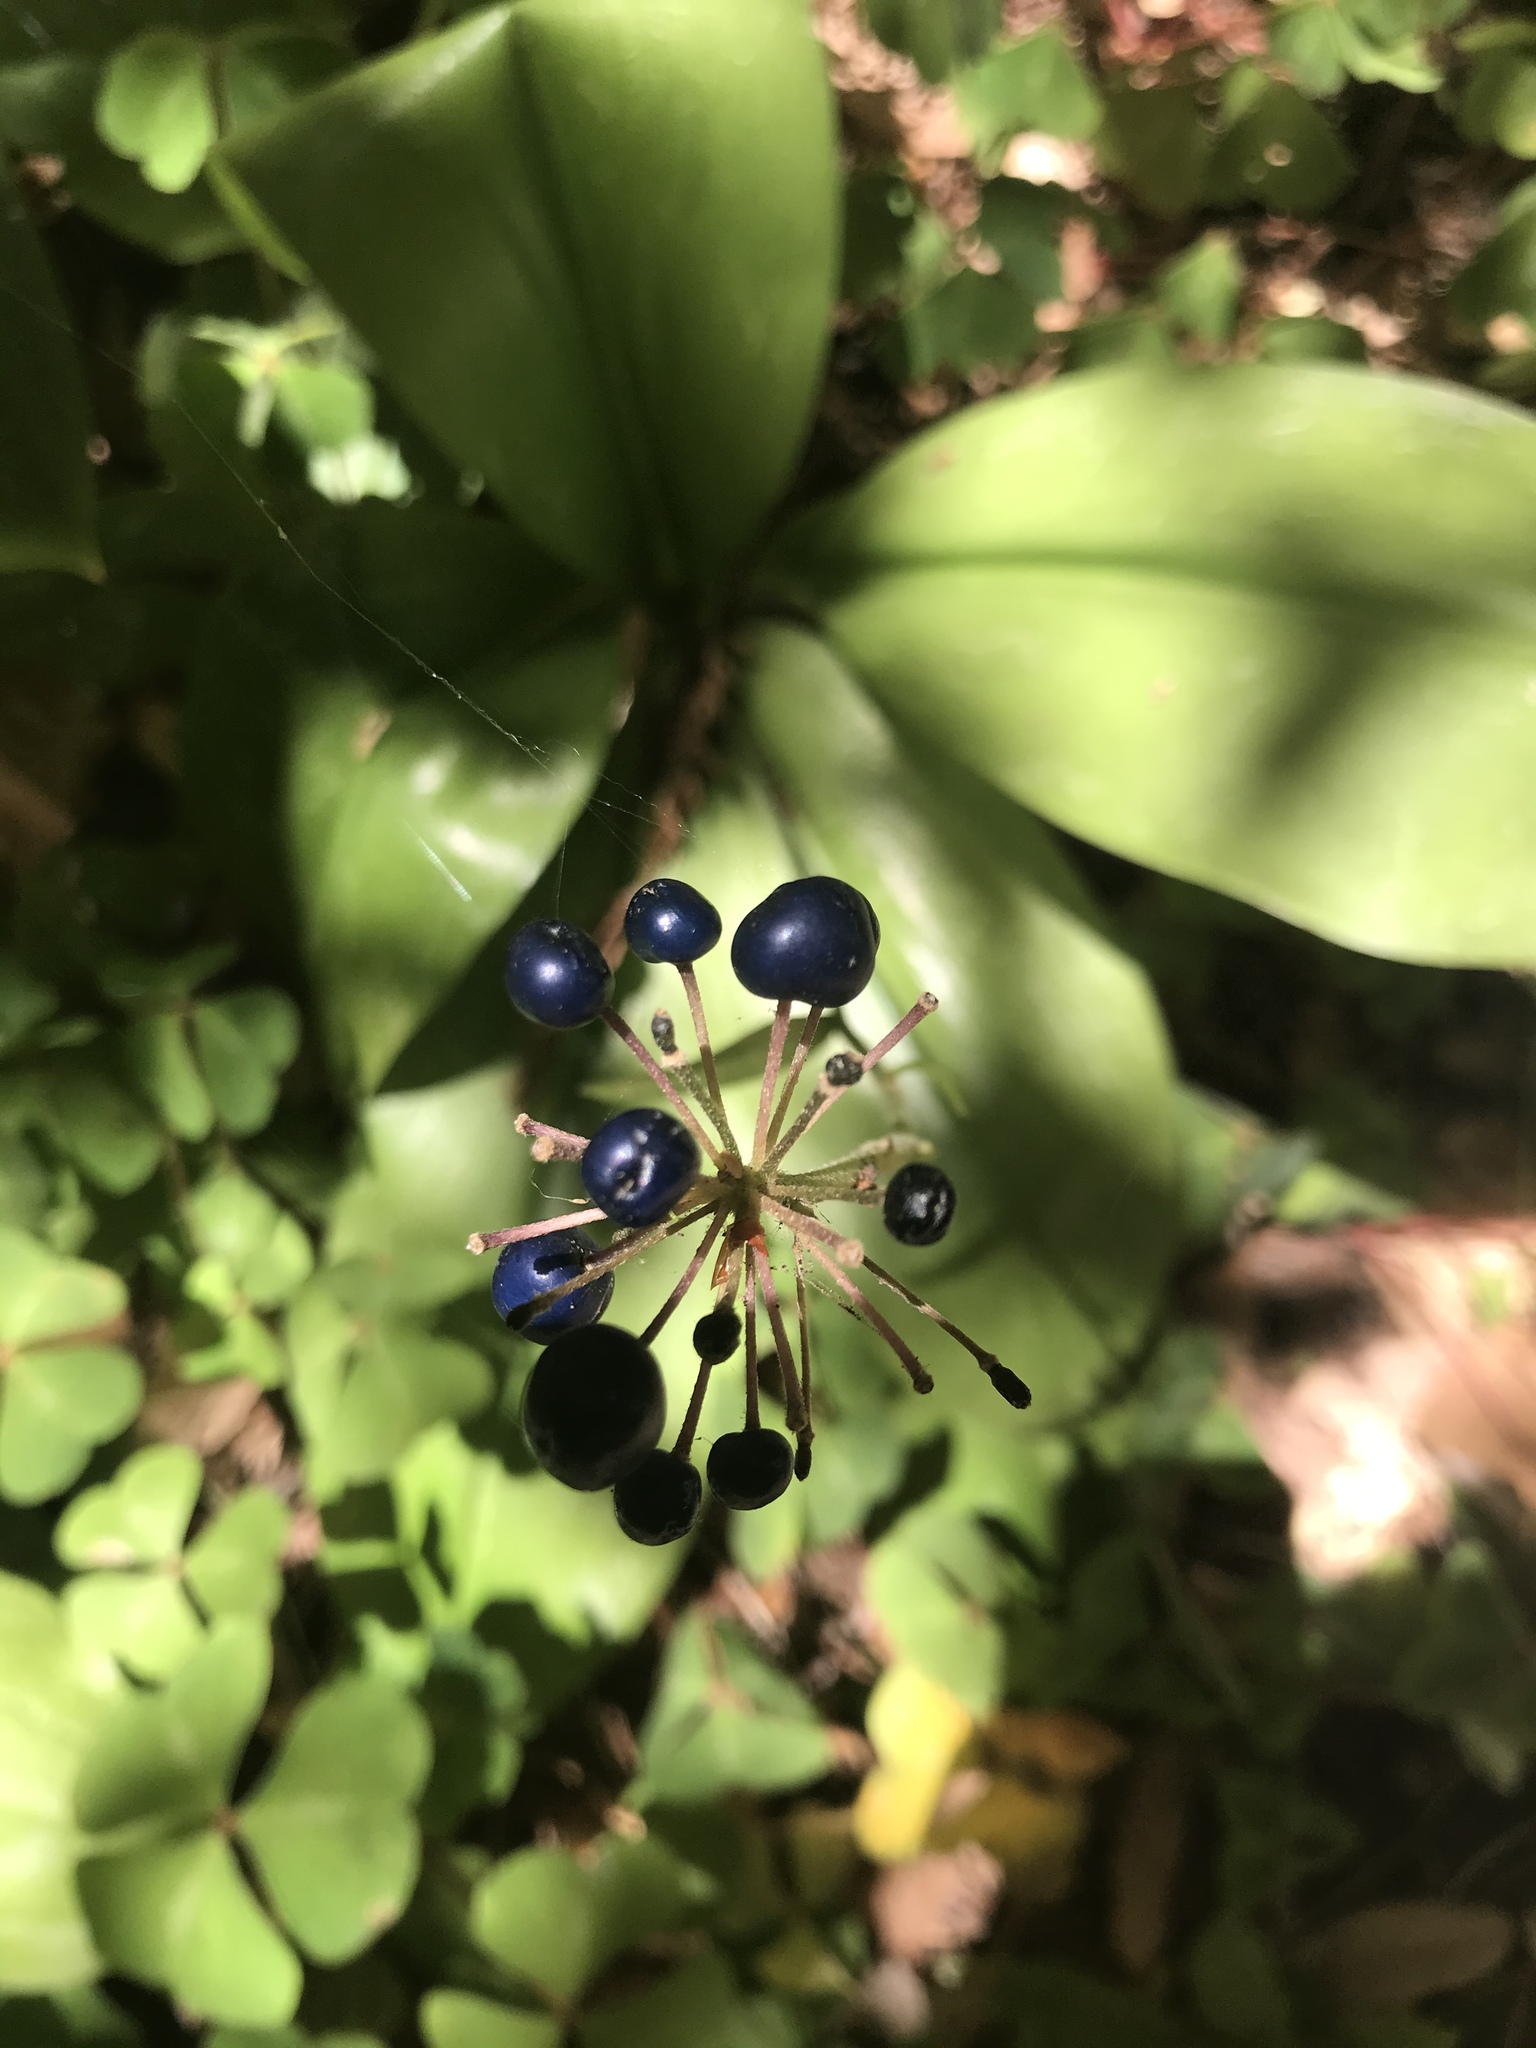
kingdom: Plantae
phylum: Tracheophyta
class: Liliopsida
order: Liliales
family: Liliaceae
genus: Clintonia
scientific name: Clintonia andrewsiana
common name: Red clintonia
